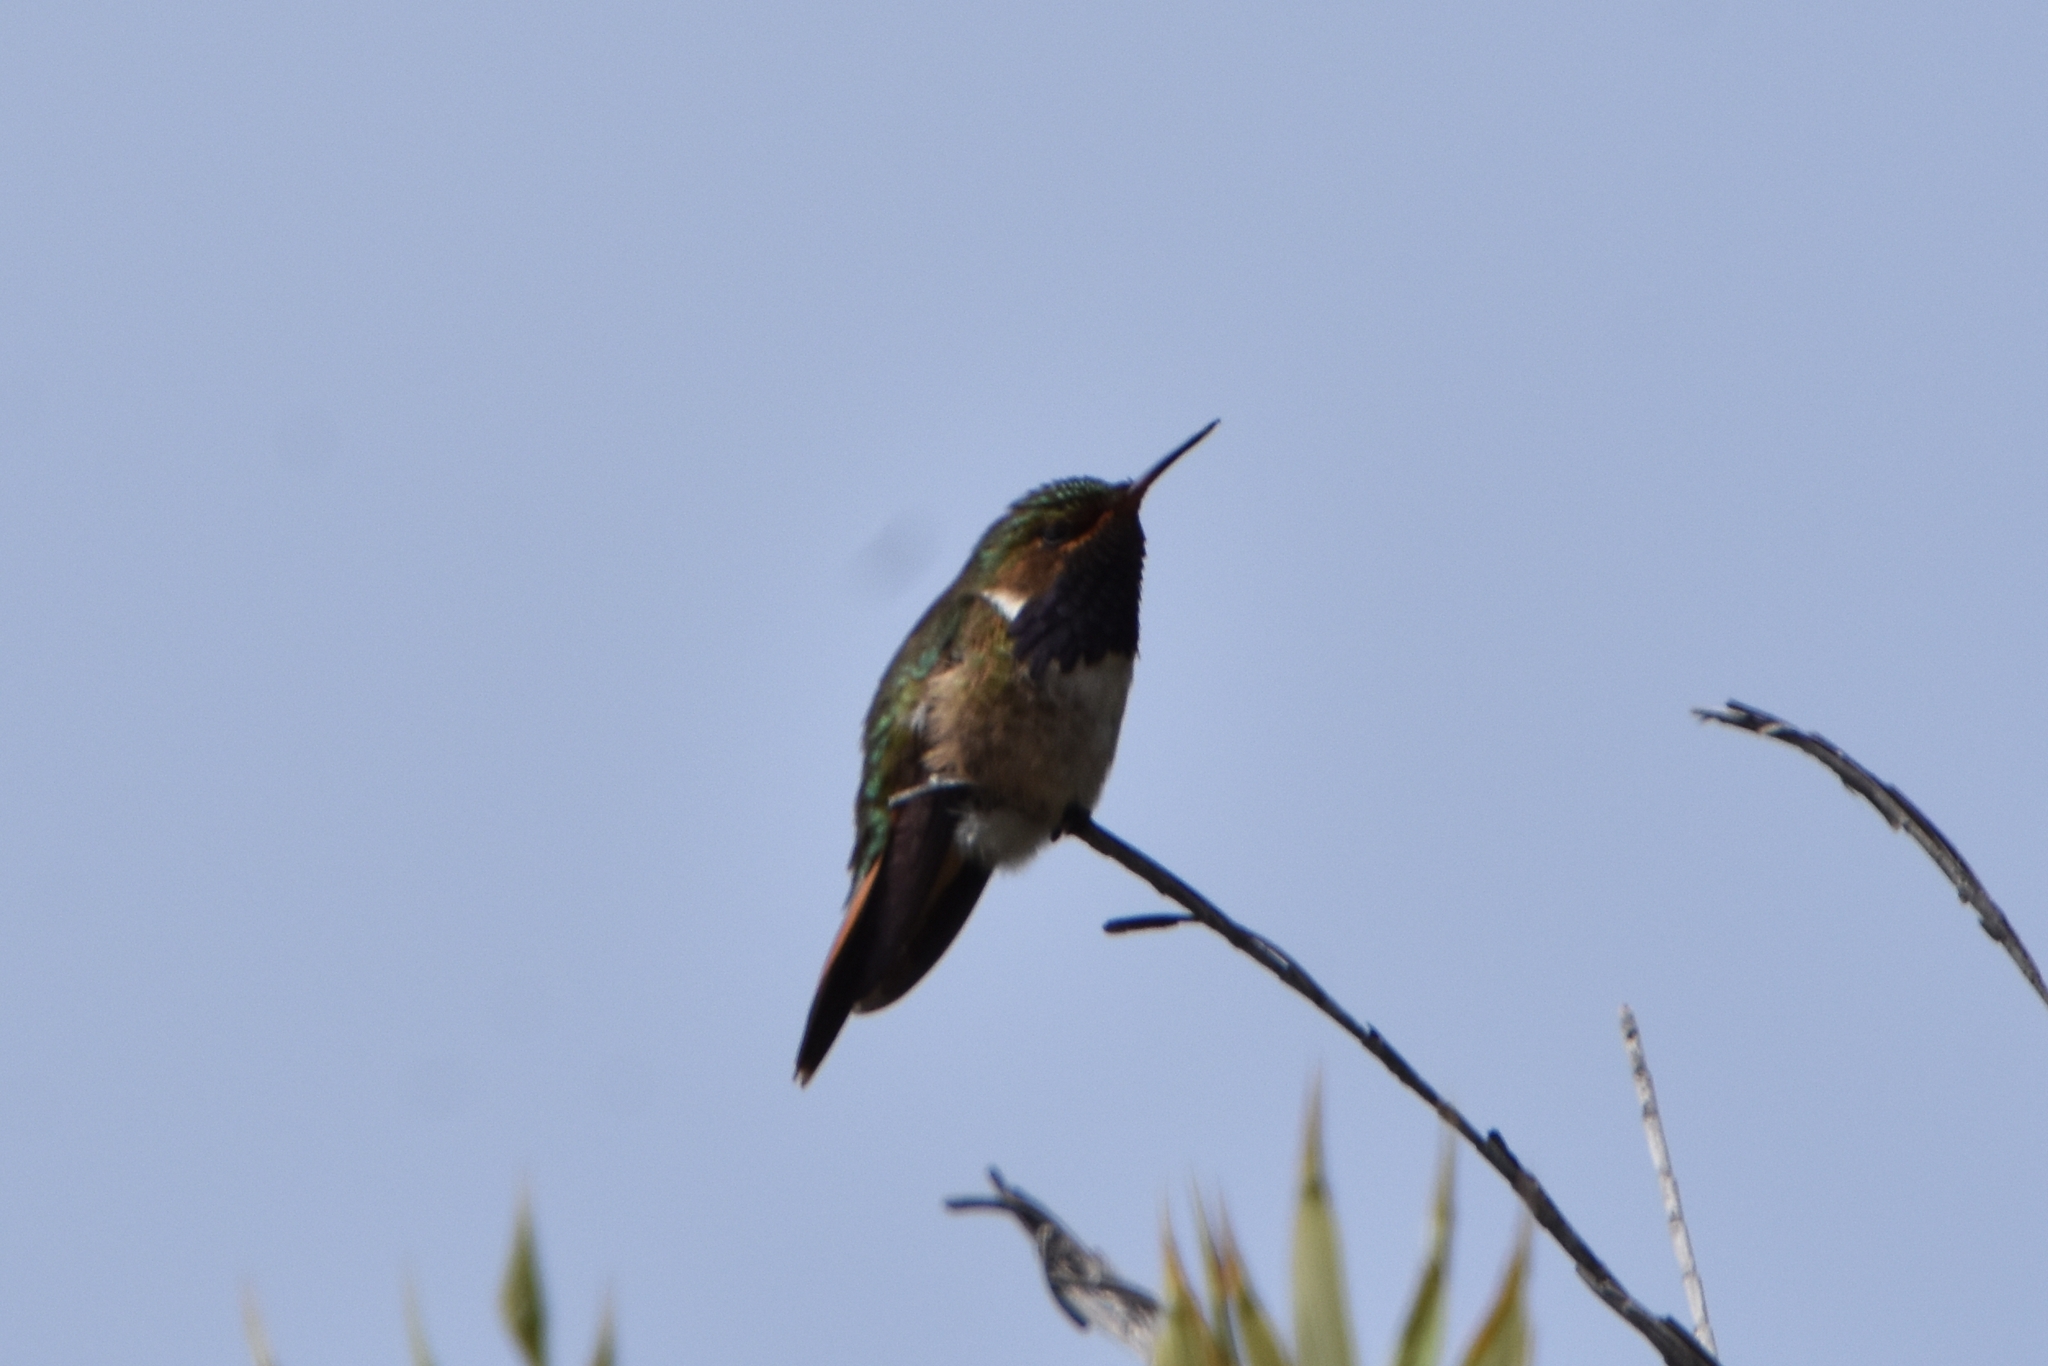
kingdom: Animalia
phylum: Chordata
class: Aves
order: Apodiformes
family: Trochilidae
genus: Selasphorus
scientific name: Selasphorus flammula
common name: Volcano hummingbird
